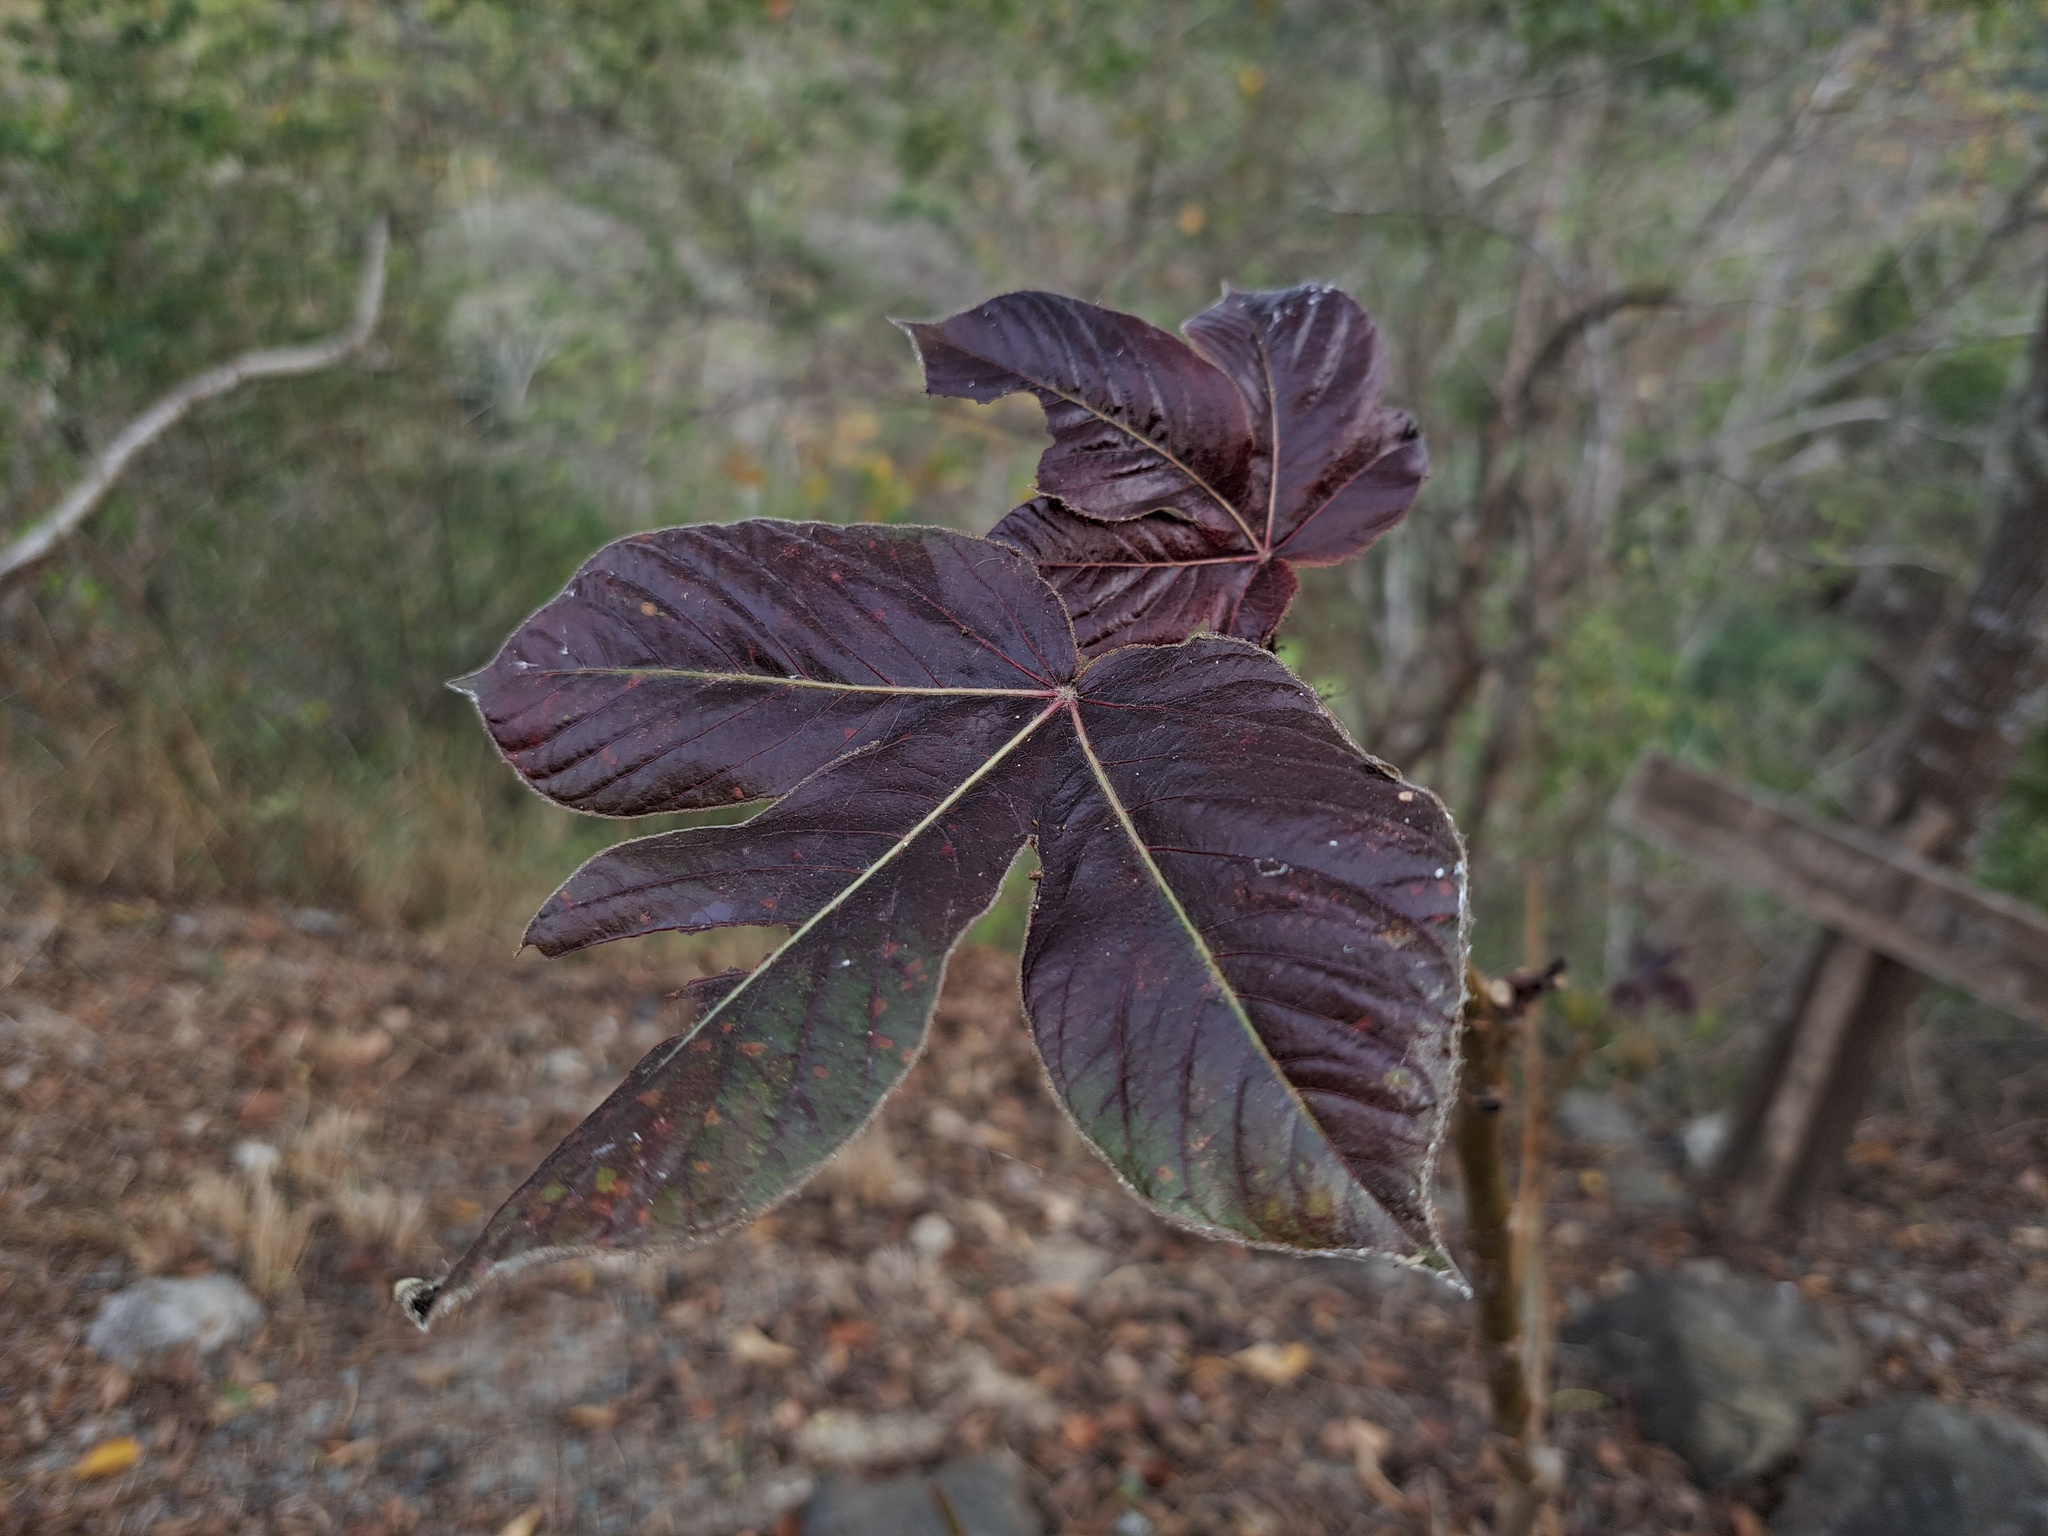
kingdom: Plantae
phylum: Tracheophyta
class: Magnoliopsida
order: Malpighiales
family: Euphorbiaceae
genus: Jatropha
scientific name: Jatropha gossypiifolia
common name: Bellyache bush
